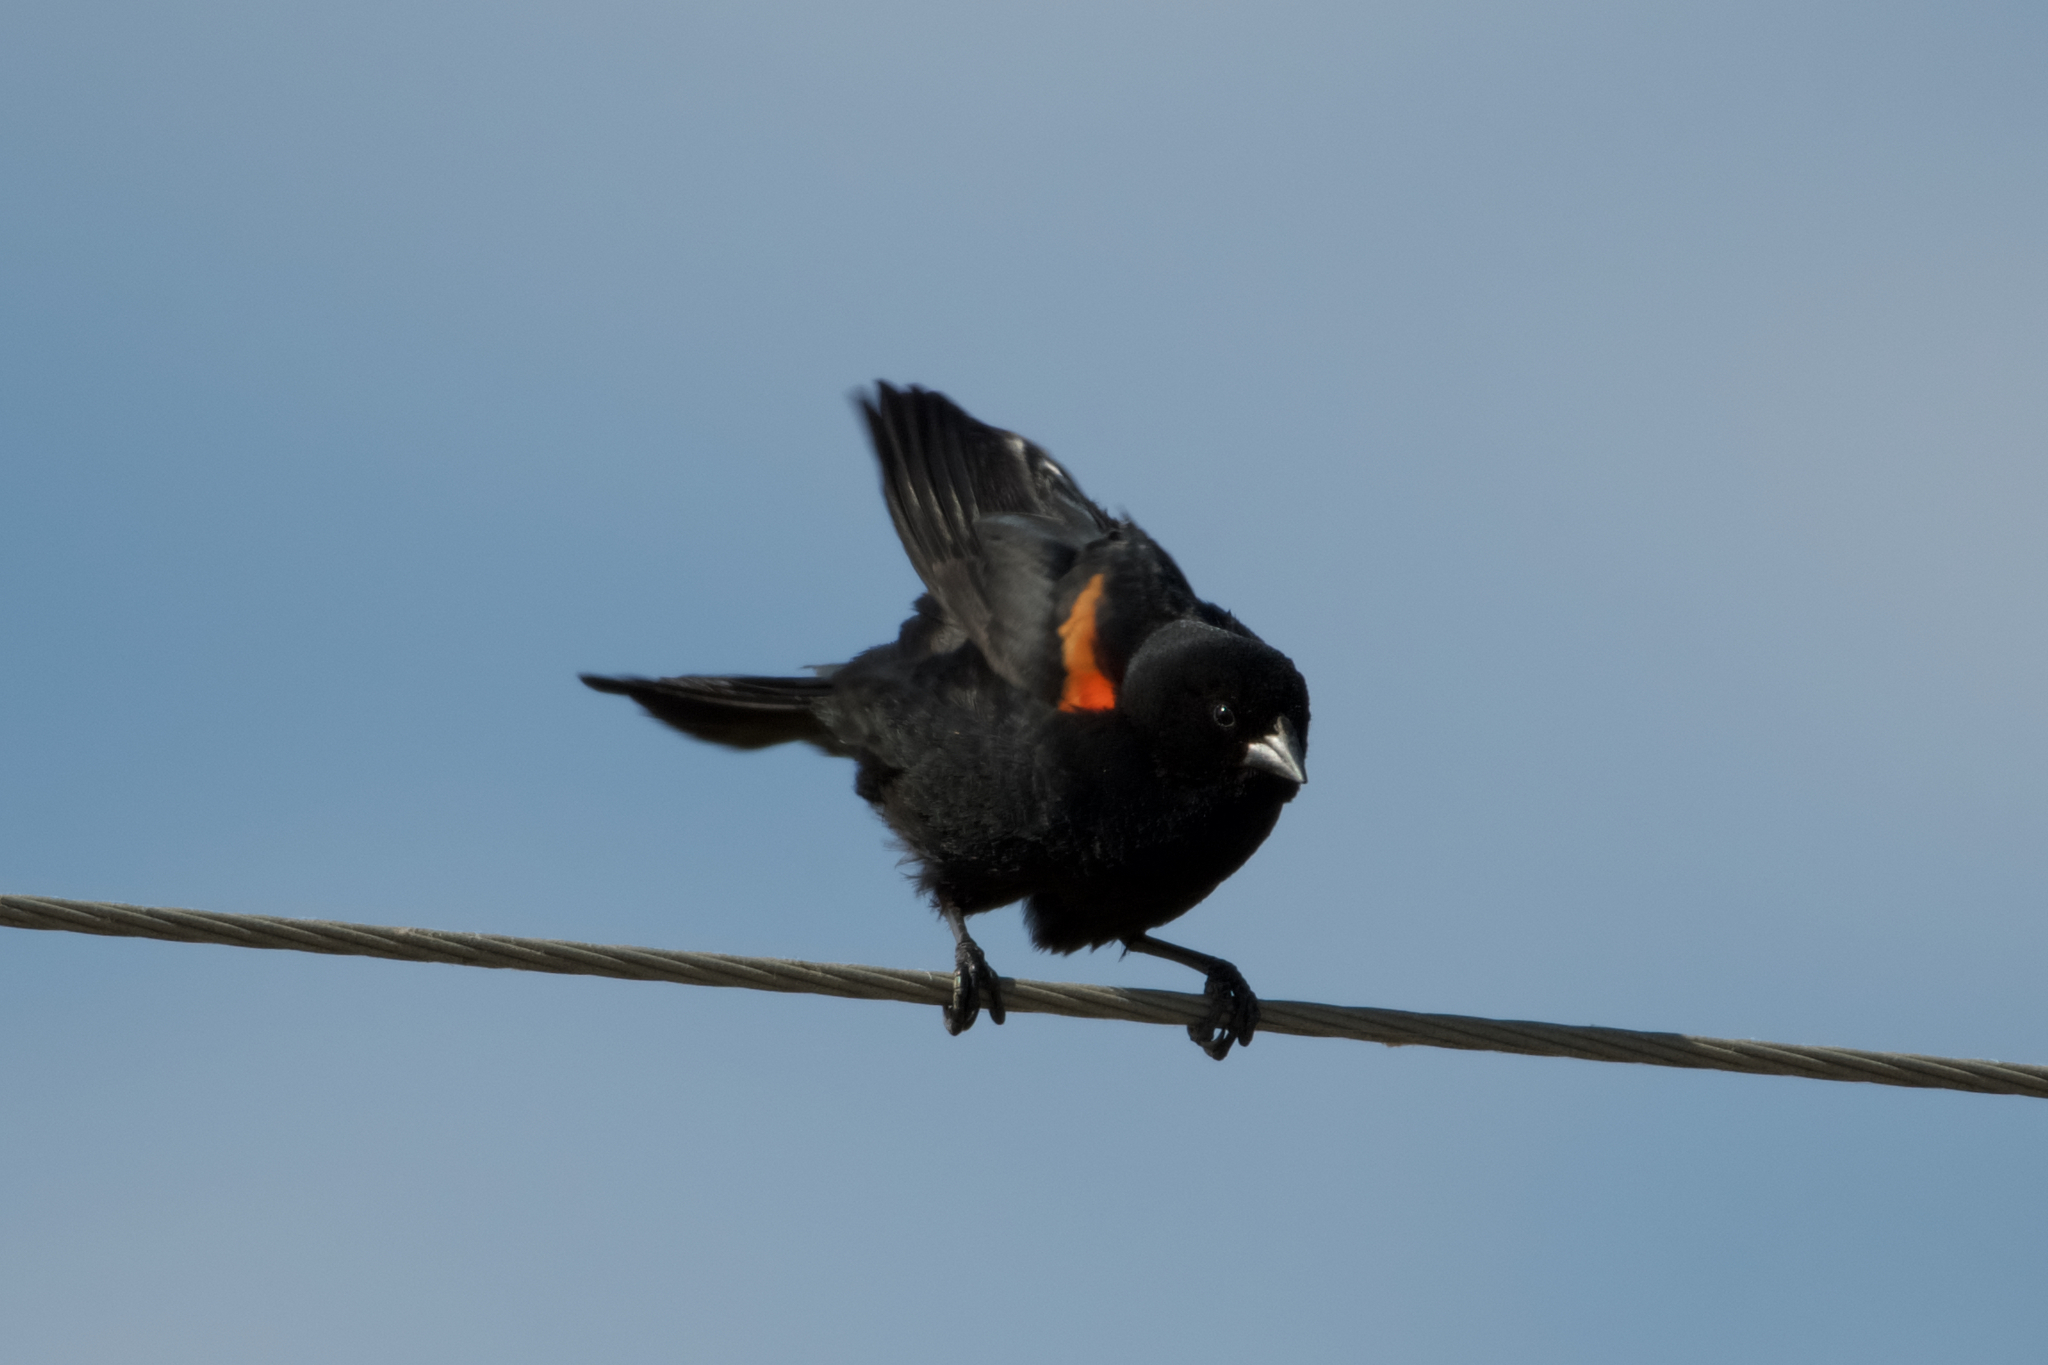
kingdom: Animalia
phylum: Chordata
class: Aves
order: Passeriformes
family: Icteridae
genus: Agelaius
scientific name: Agelaius phoeniceus
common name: Red-winged blackbird
